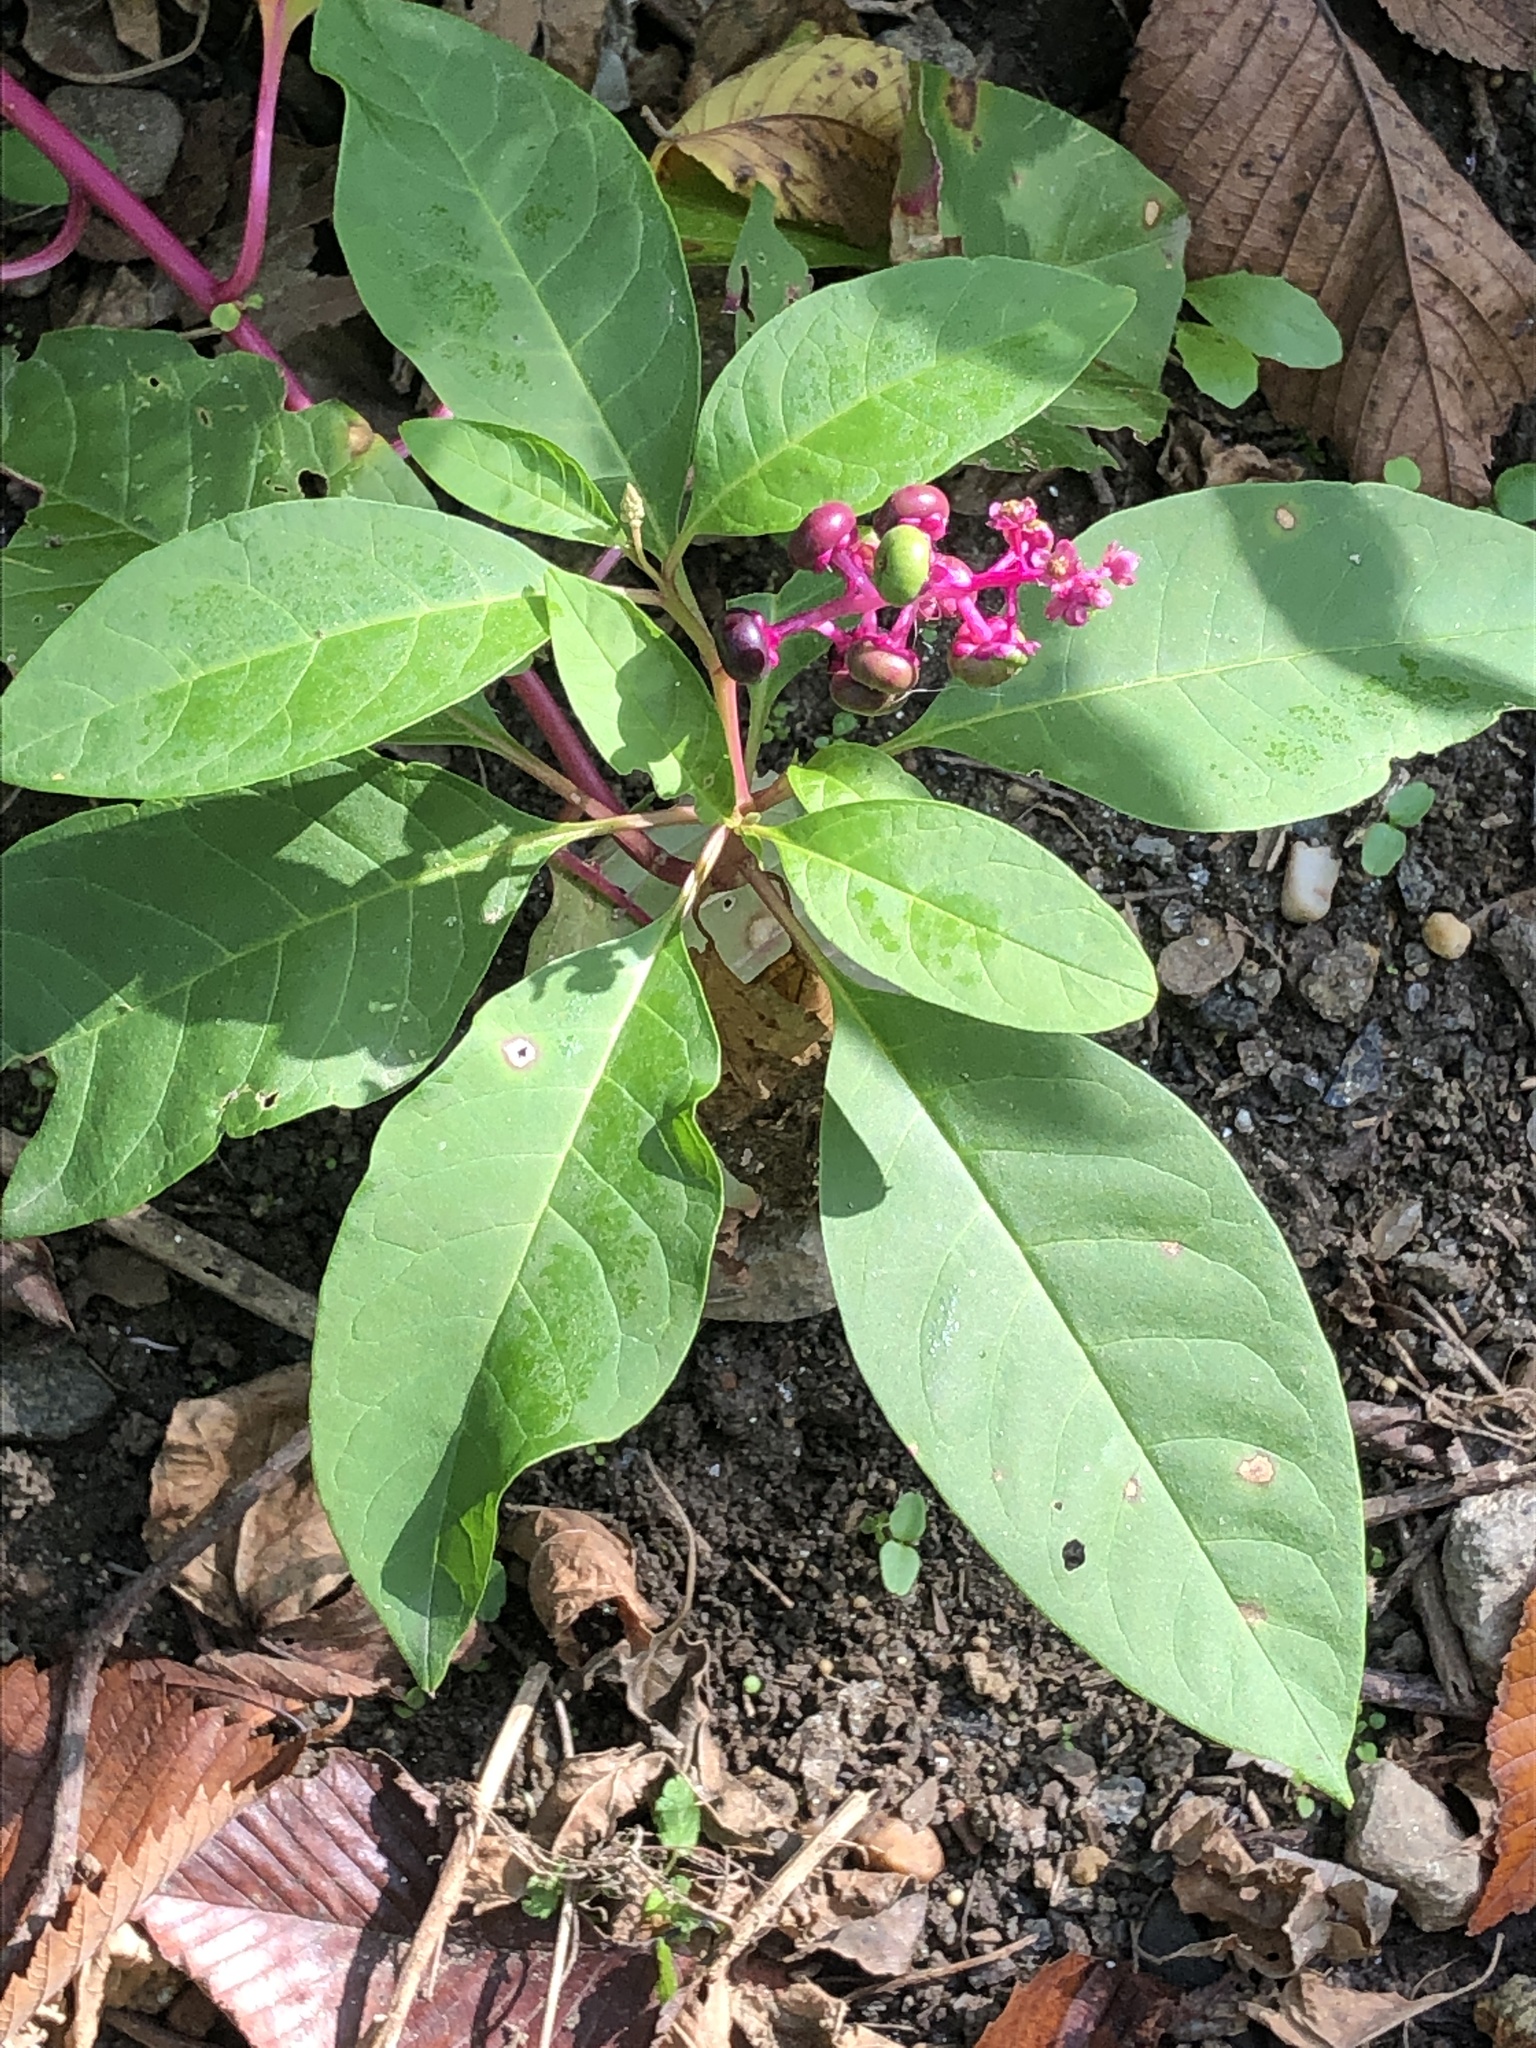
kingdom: Plantae
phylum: Tracheophyta
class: Magnoliopsida
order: Caryophyllales
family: Phytolaccaceae
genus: Phytolacca
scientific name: Phytolacca americana
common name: American pokeweed
